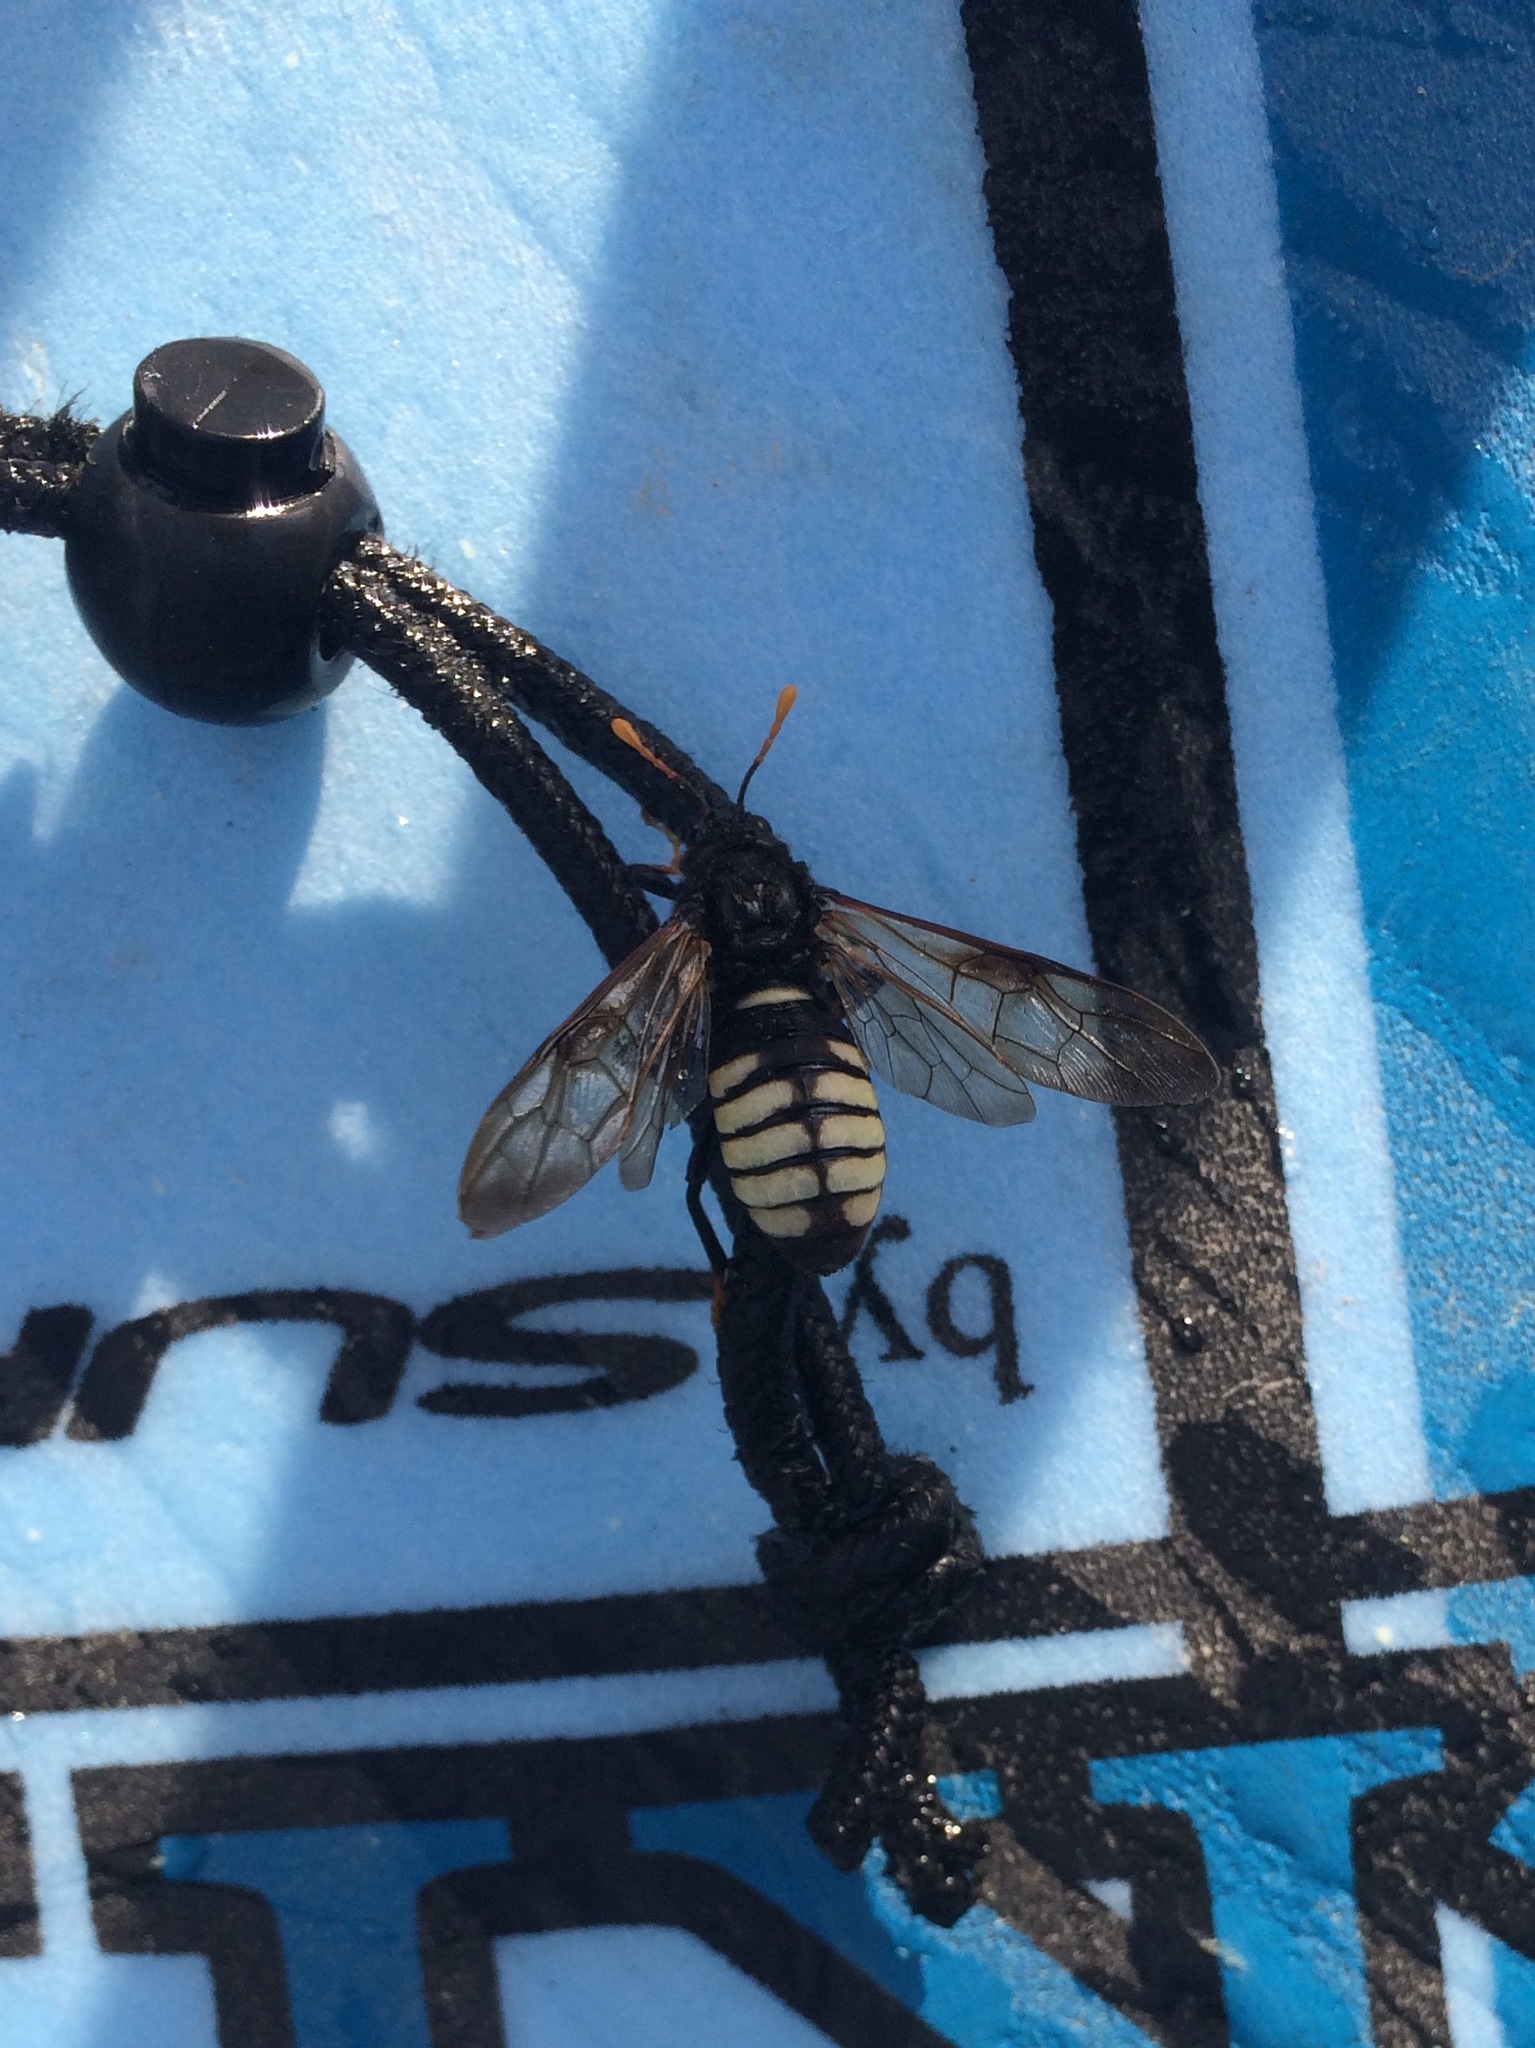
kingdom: Animalia
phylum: Arthropoda
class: Insecta
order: Hymenoptera
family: Cimbicidae
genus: Cimbex
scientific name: Cimbex americana
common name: Elm sawfly
